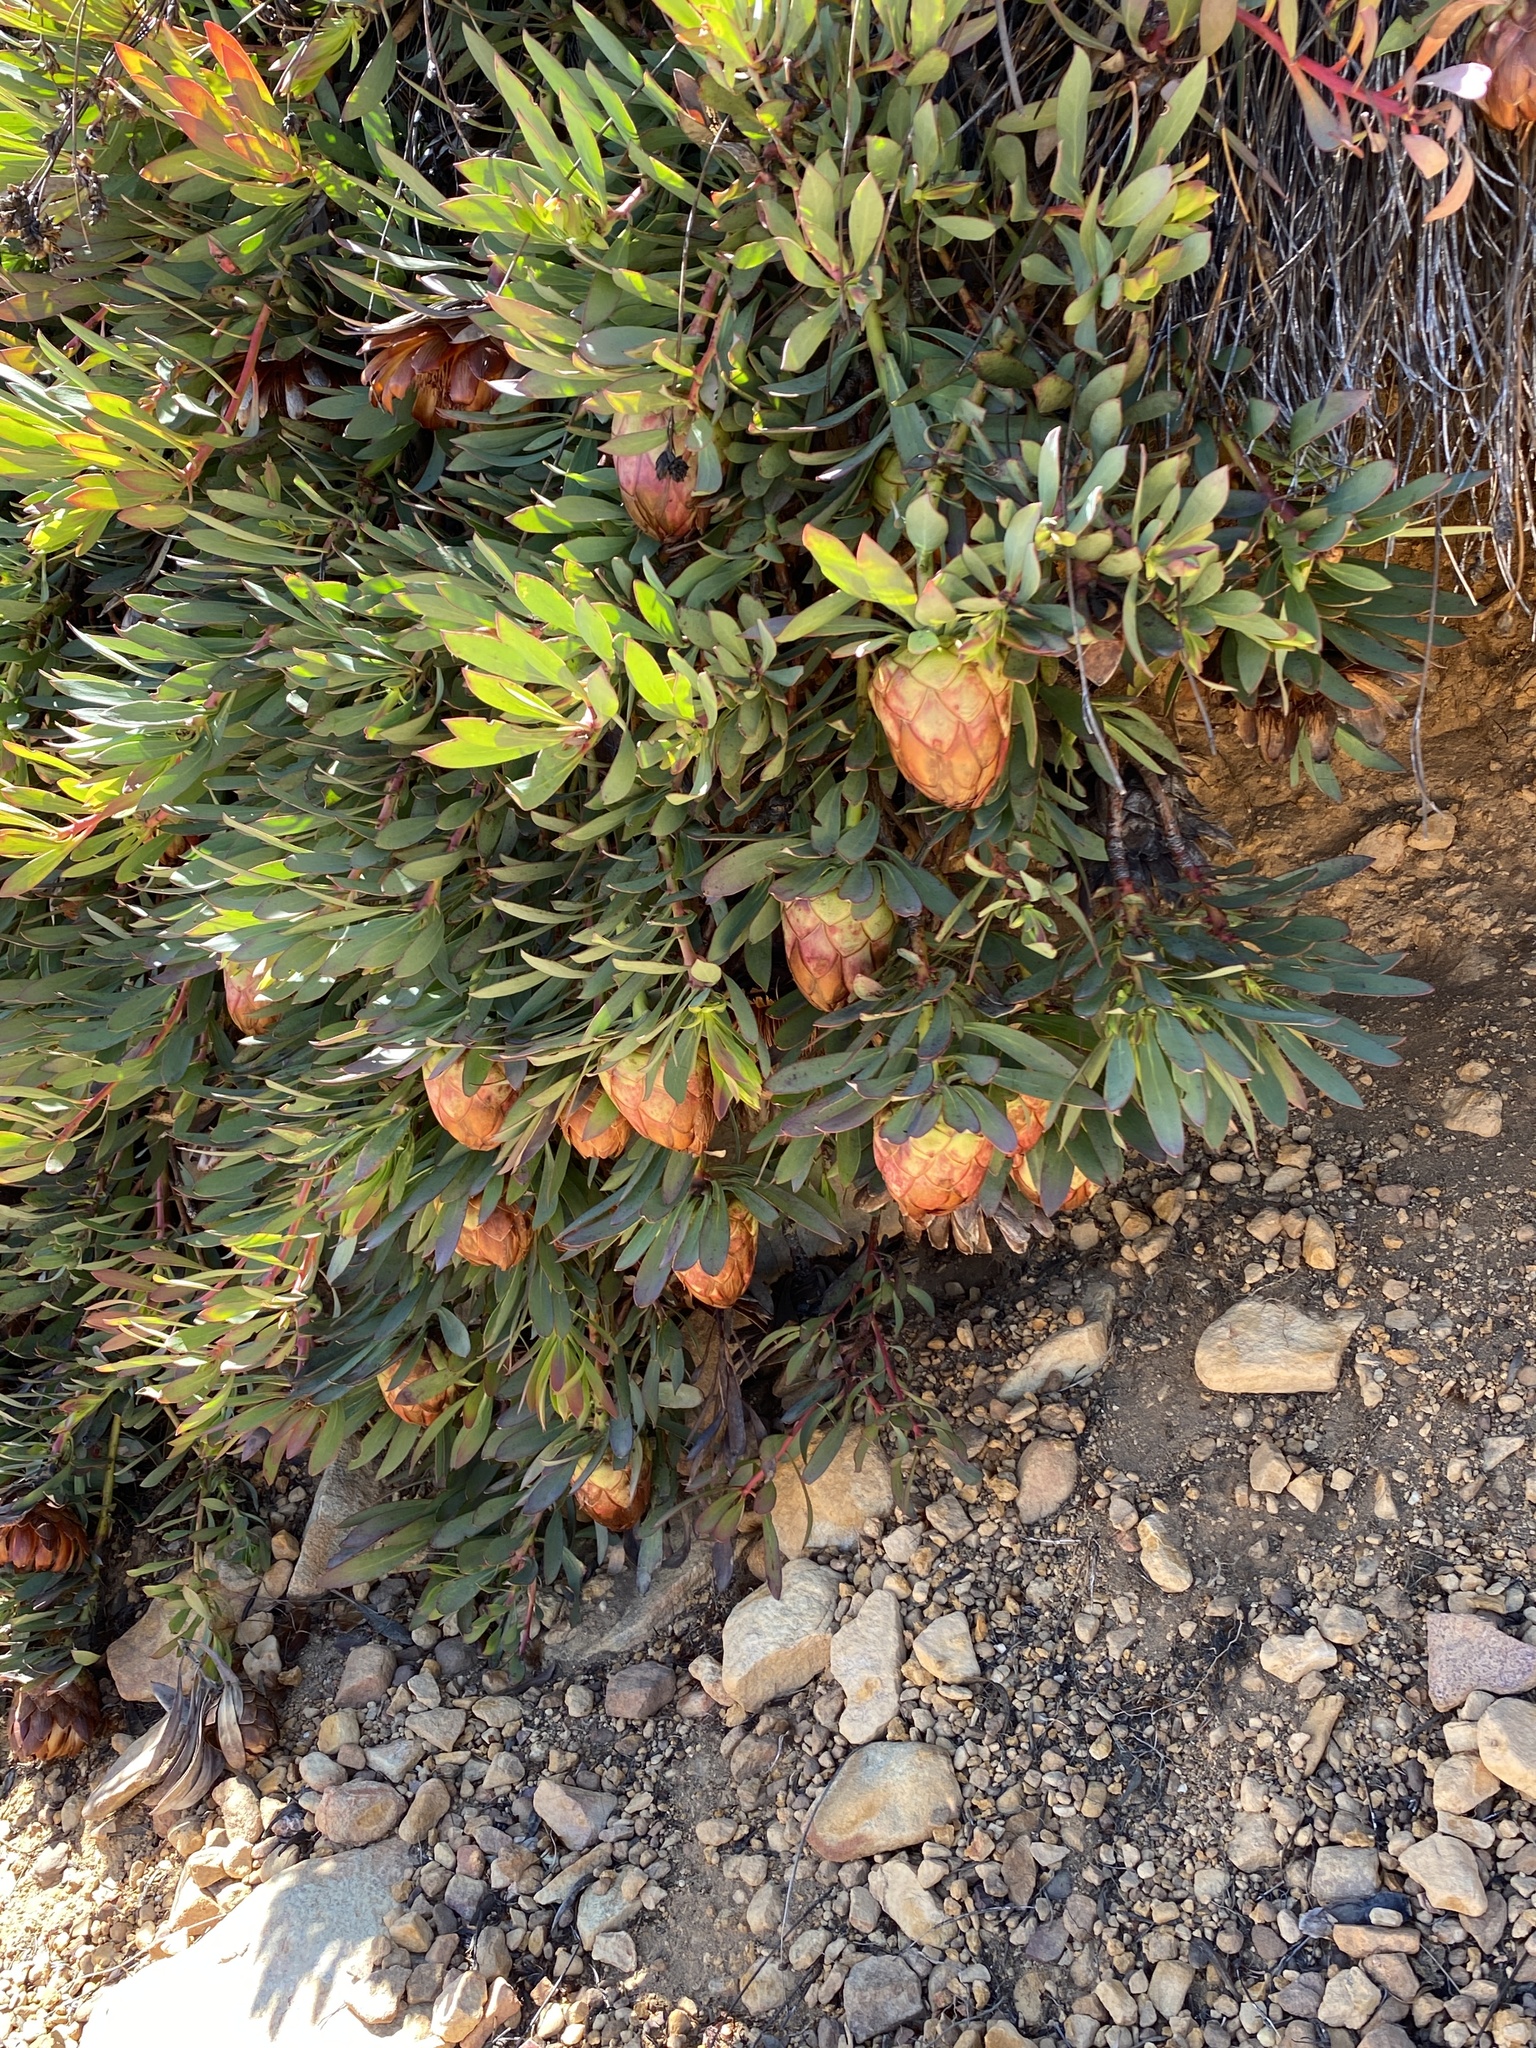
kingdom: Plantae
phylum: Tracheophyta
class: Magnoliopsida
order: Proteales
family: Proteaceae
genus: Protea
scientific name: Protea effusa
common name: Scarlet sugarbush
